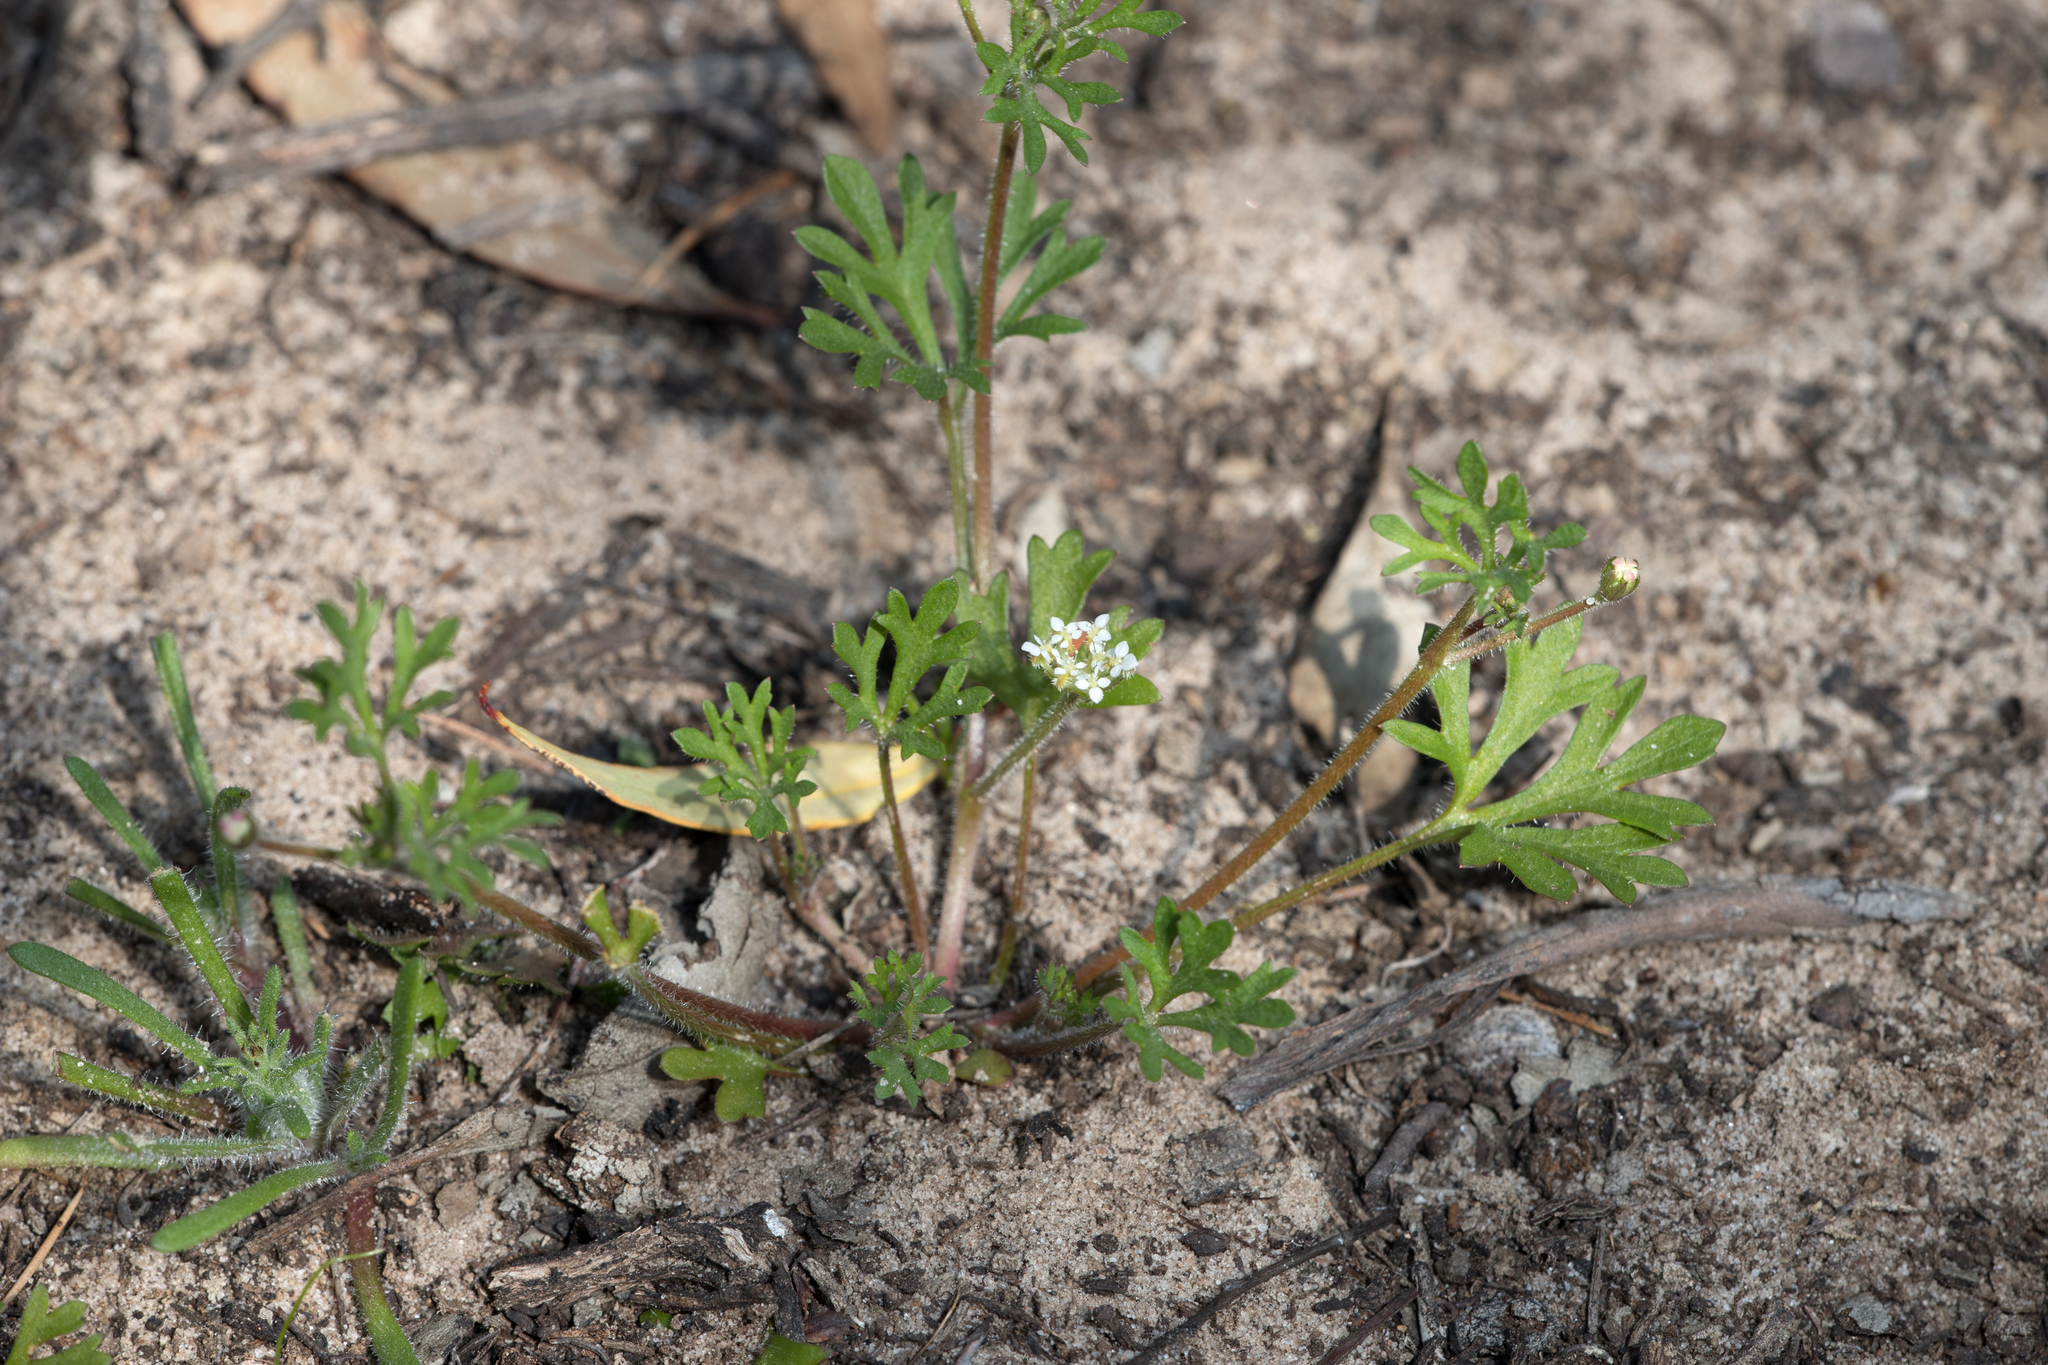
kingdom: Plantae
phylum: Tracheophyta
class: Magnoliopsida
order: Apiales
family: Araliaceae
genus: Trachymene
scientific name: Trachymene pilosa
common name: Dwarf trachymene
